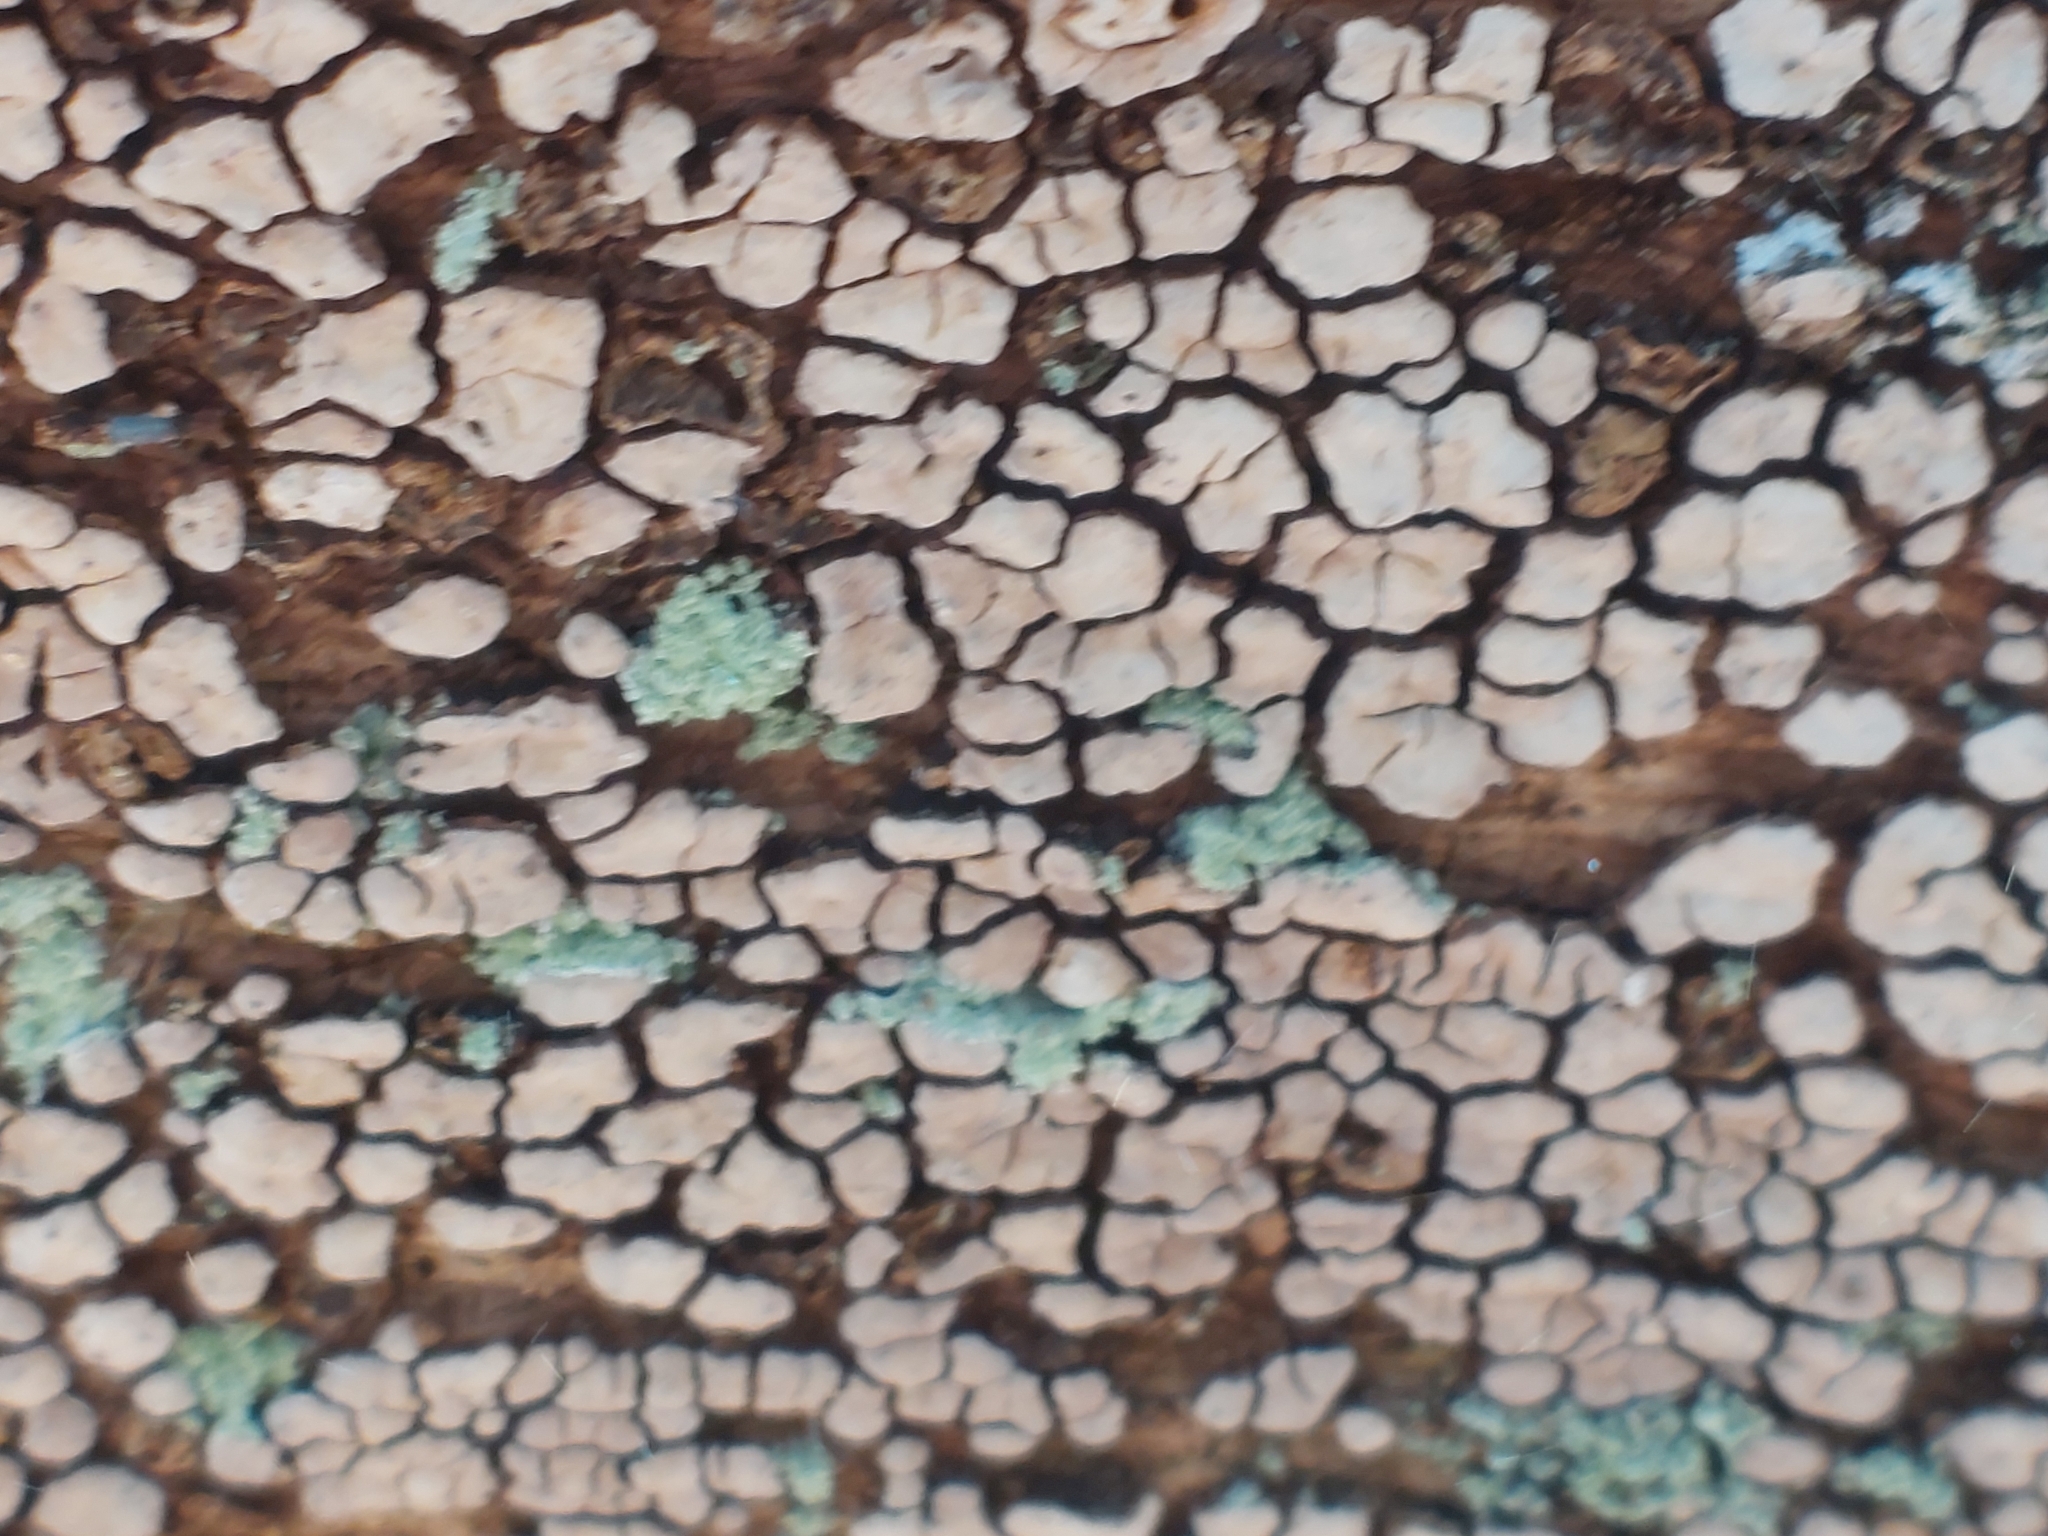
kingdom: Fungi
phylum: Basidiomycota
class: Agaricomycetes
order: Russulales
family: Stereaceae
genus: Xylobolus
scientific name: Xylobolus frustulatus
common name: Ceramic parchment
